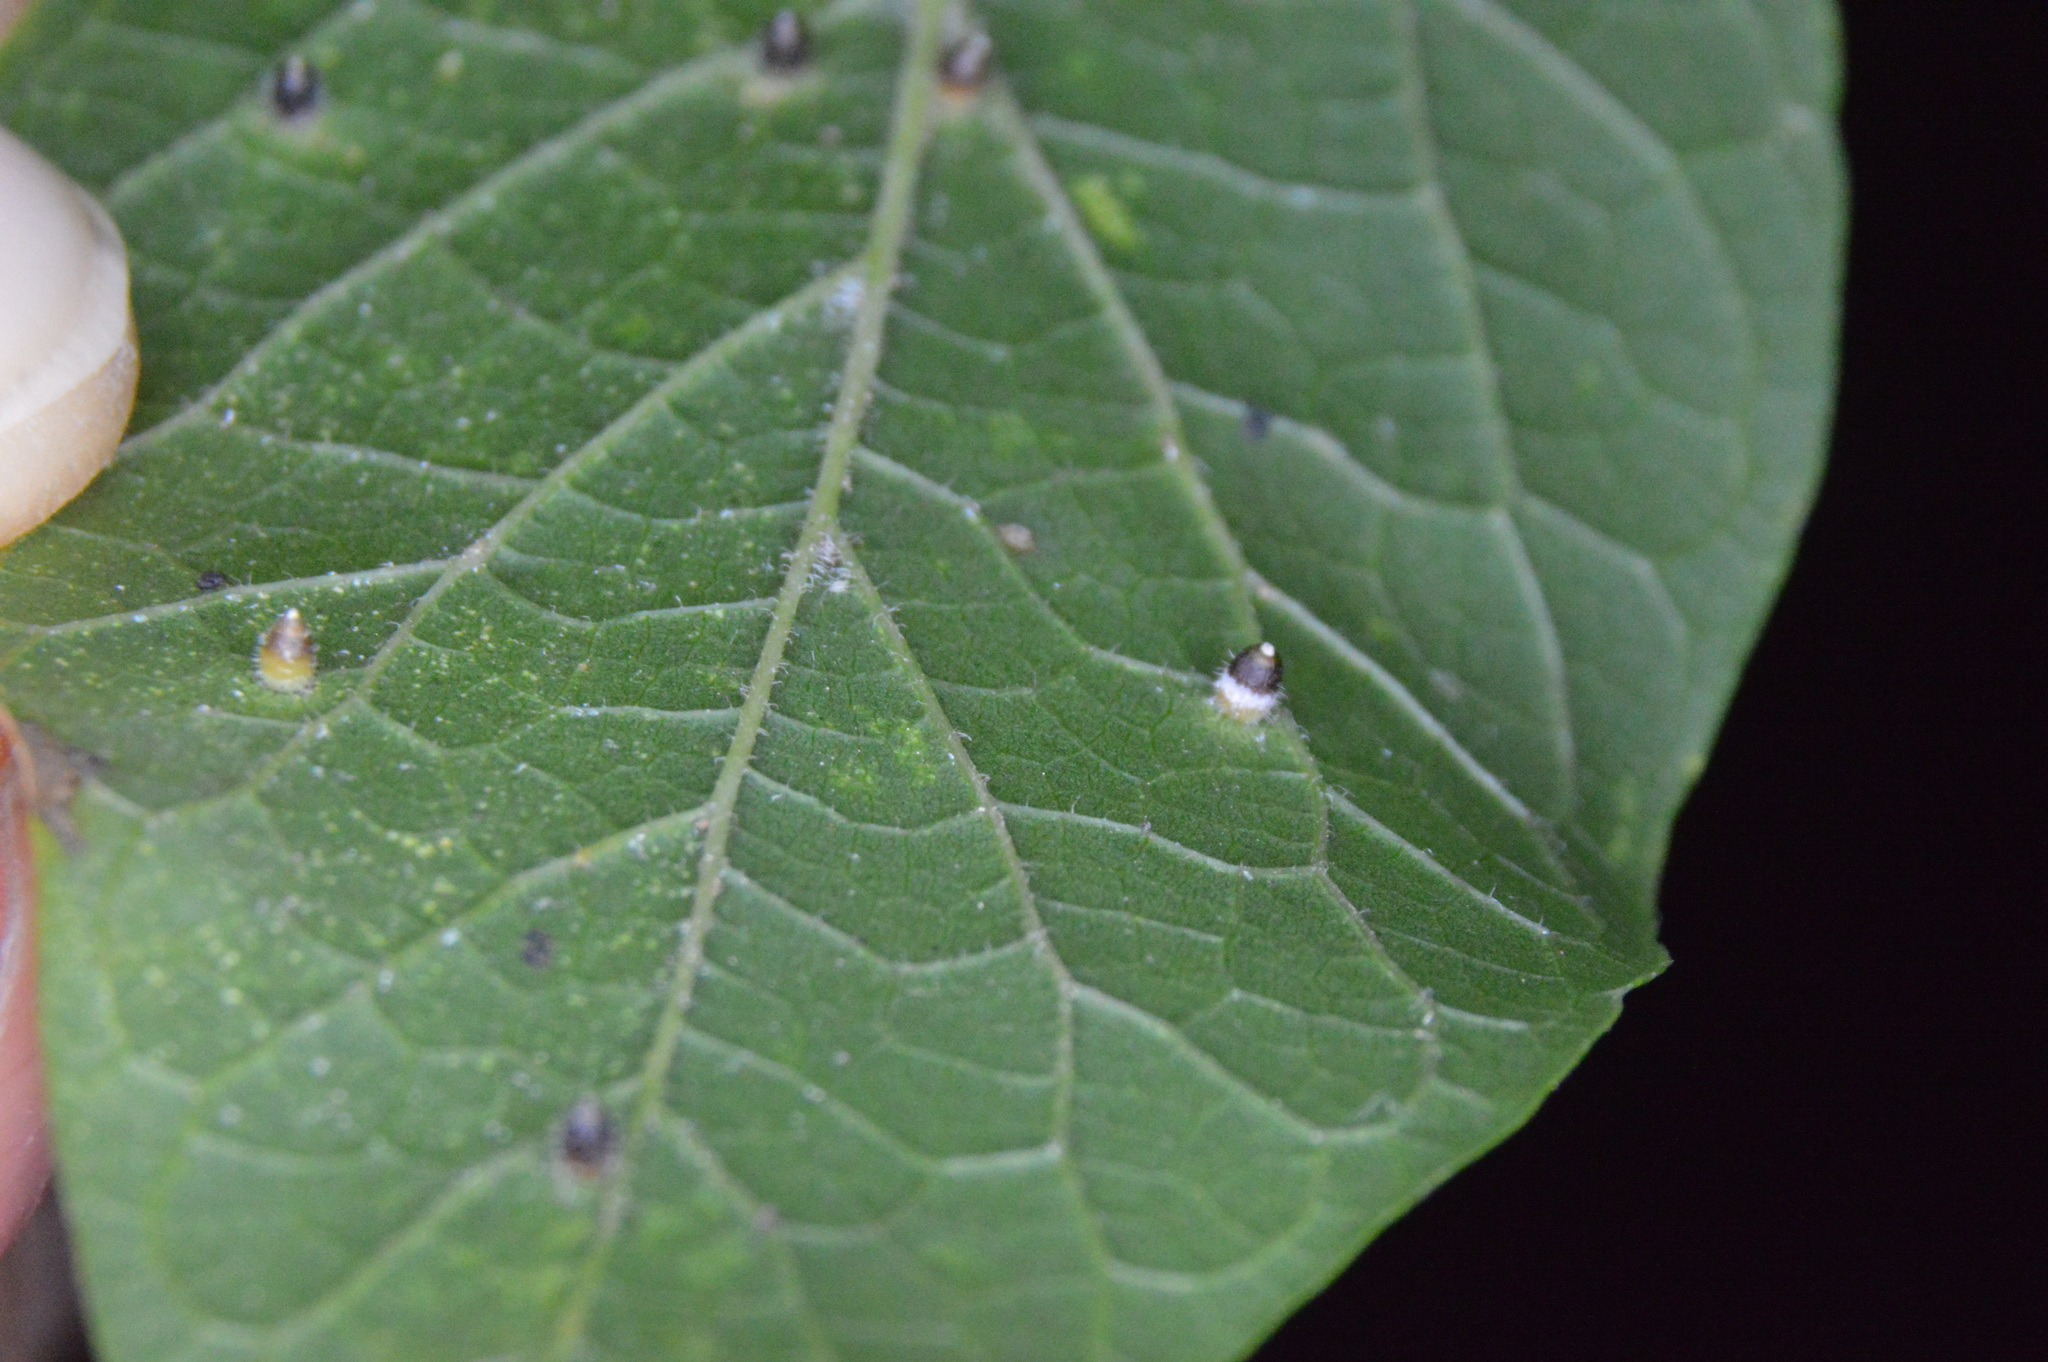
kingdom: Animalia
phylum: Arthropoda
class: Insecta
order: Diptera
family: Cecidomyiidae
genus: Celticecis
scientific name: Celticecis cupiformis
